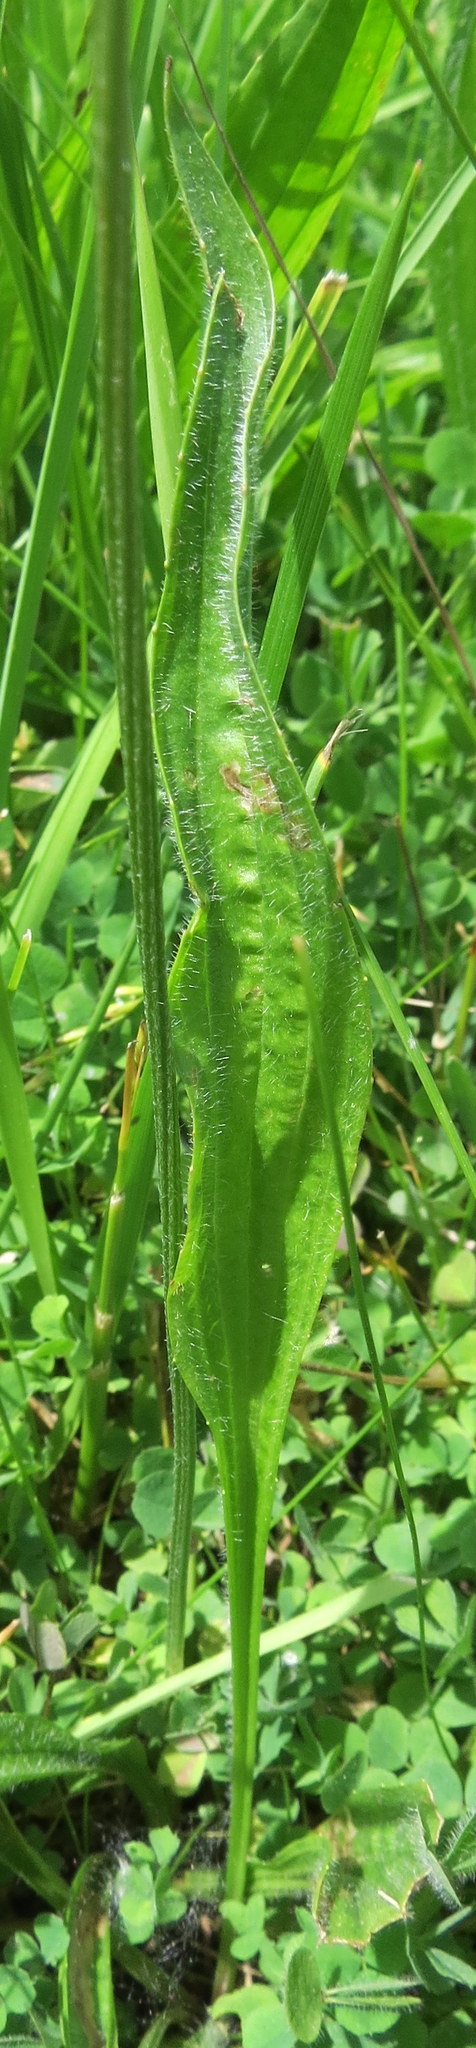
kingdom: Plantae
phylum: Tracheophyta
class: Magnoliopsida
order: Lamiales
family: Plantaginaceae
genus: Plantago
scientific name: Plantago lanceolata
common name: Ribwort plantain
